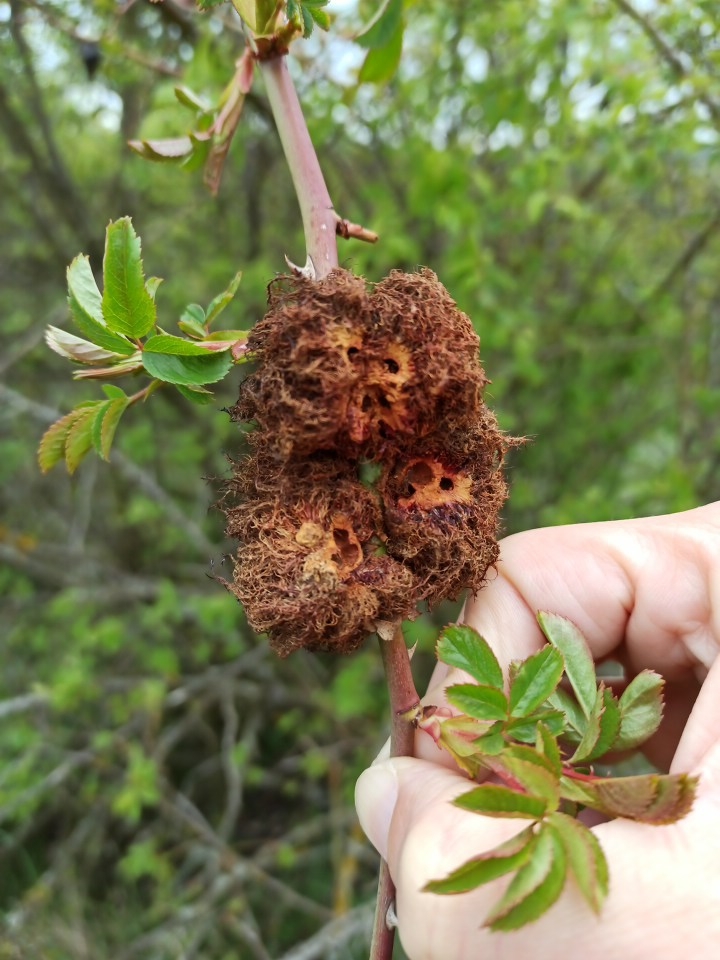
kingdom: Animalia
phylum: Arthropoda
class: Insecta
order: Hymenoptera
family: Cynipidae
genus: Diplolepis
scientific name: Diplolepis rosae
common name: Bedeguar gall
